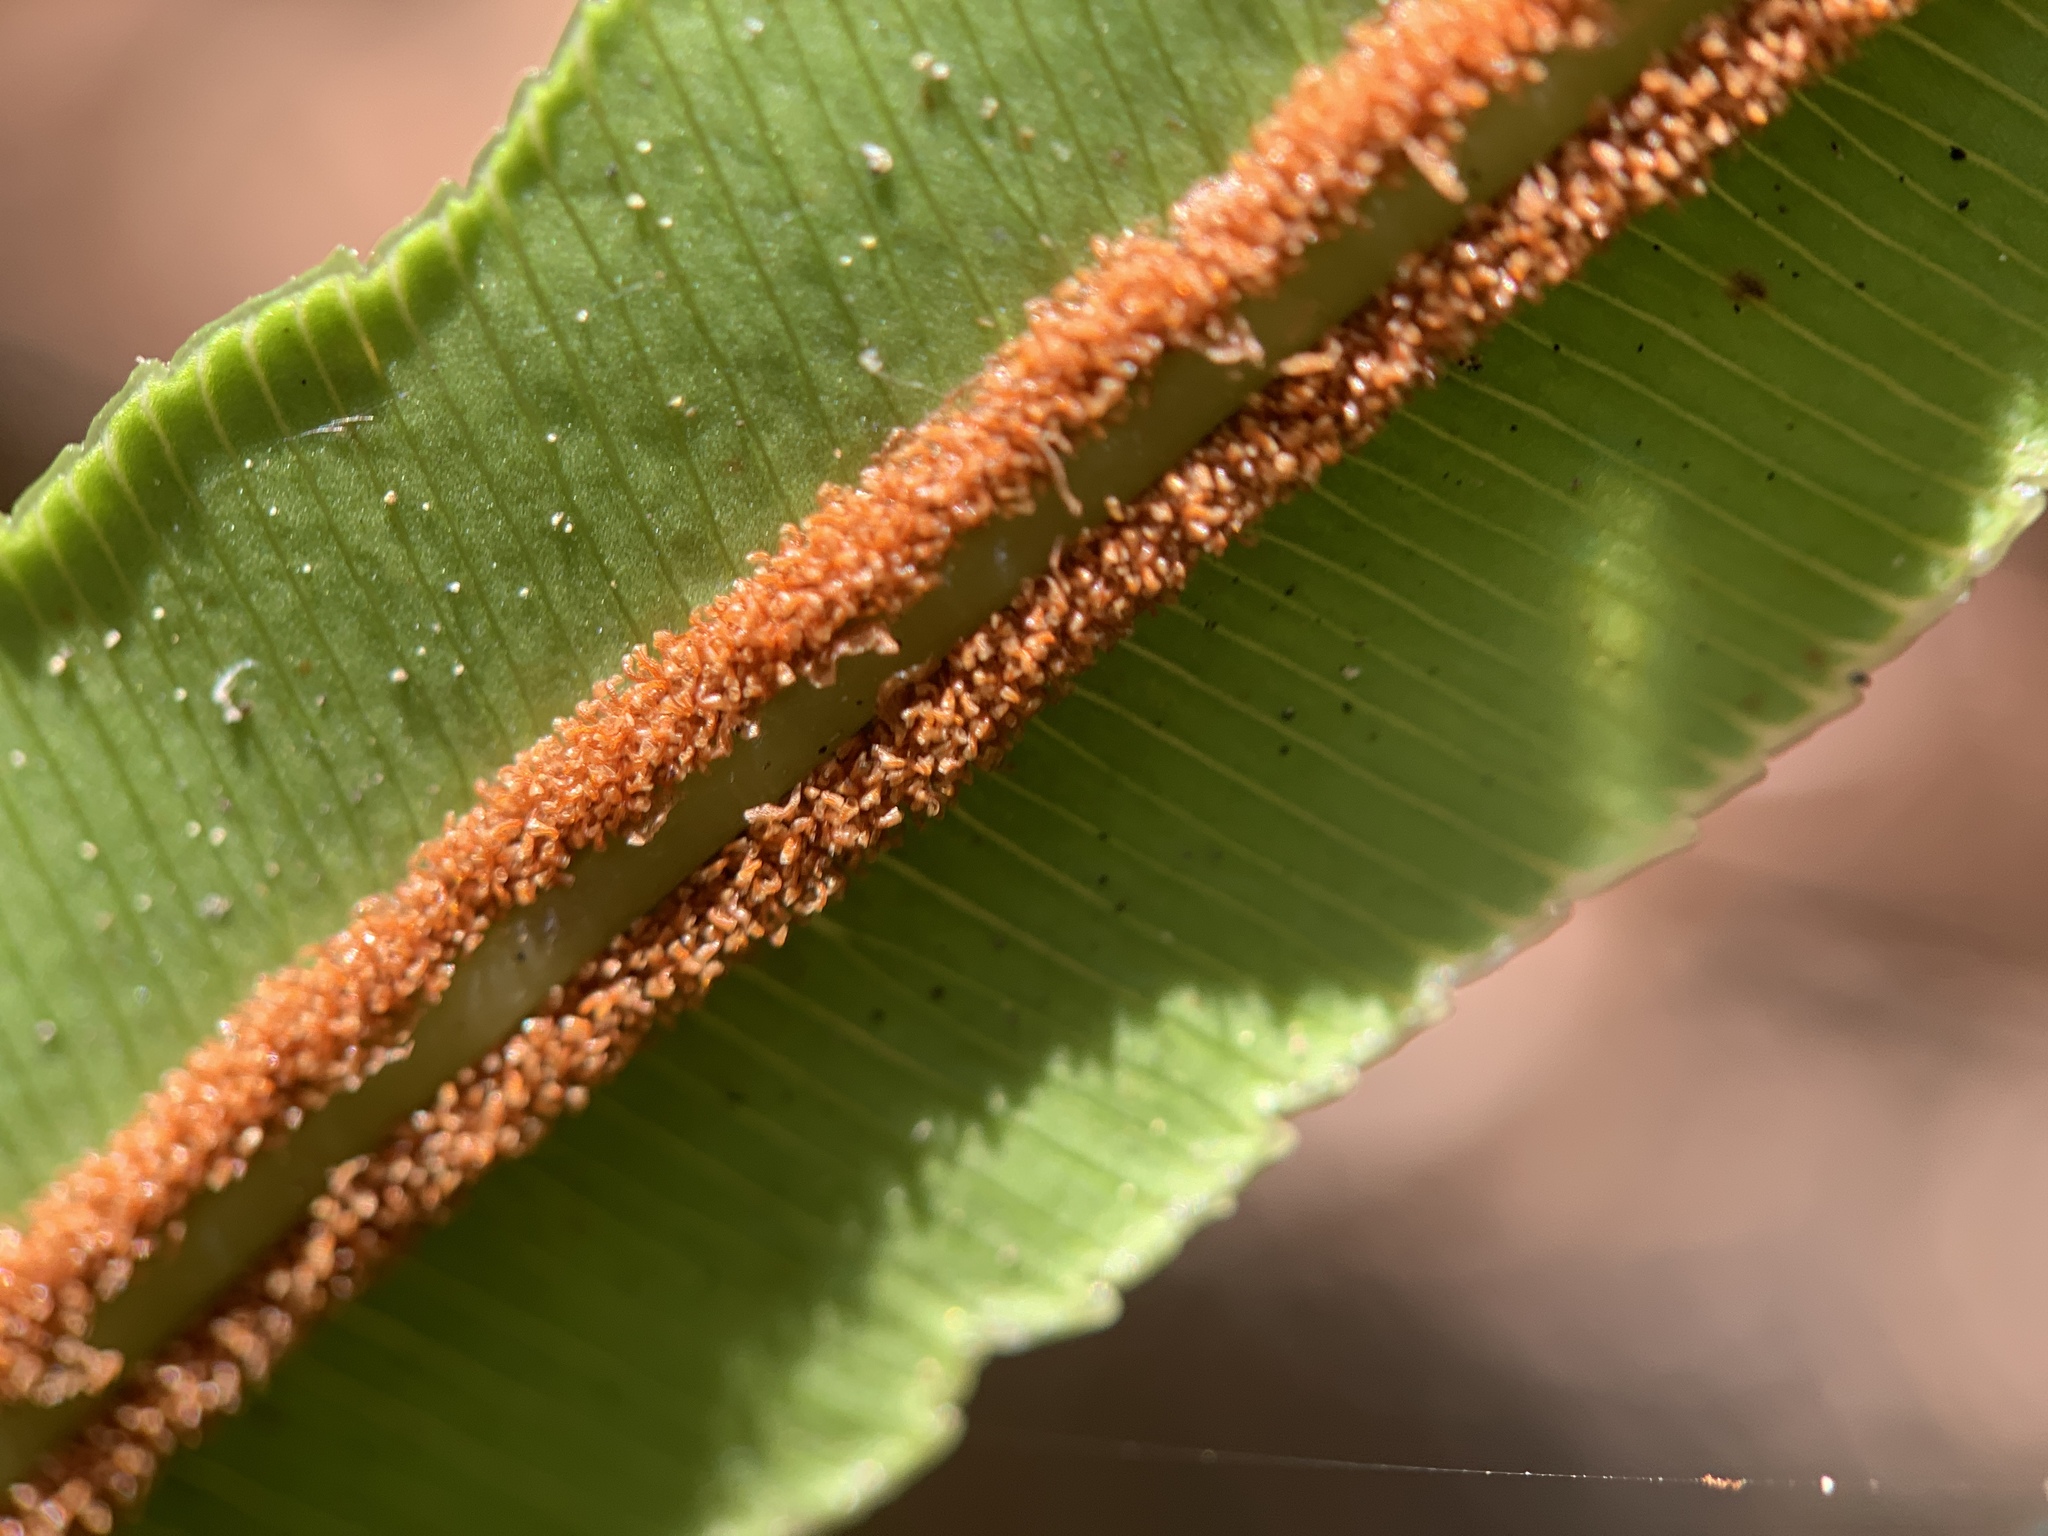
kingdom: Plantae
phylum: Tracheophyta
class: Polypodiopsida
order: Polypodiales
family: Blechnaceae
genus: Telmatoblechnum
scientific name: Telmatoblechnum serrulatum
